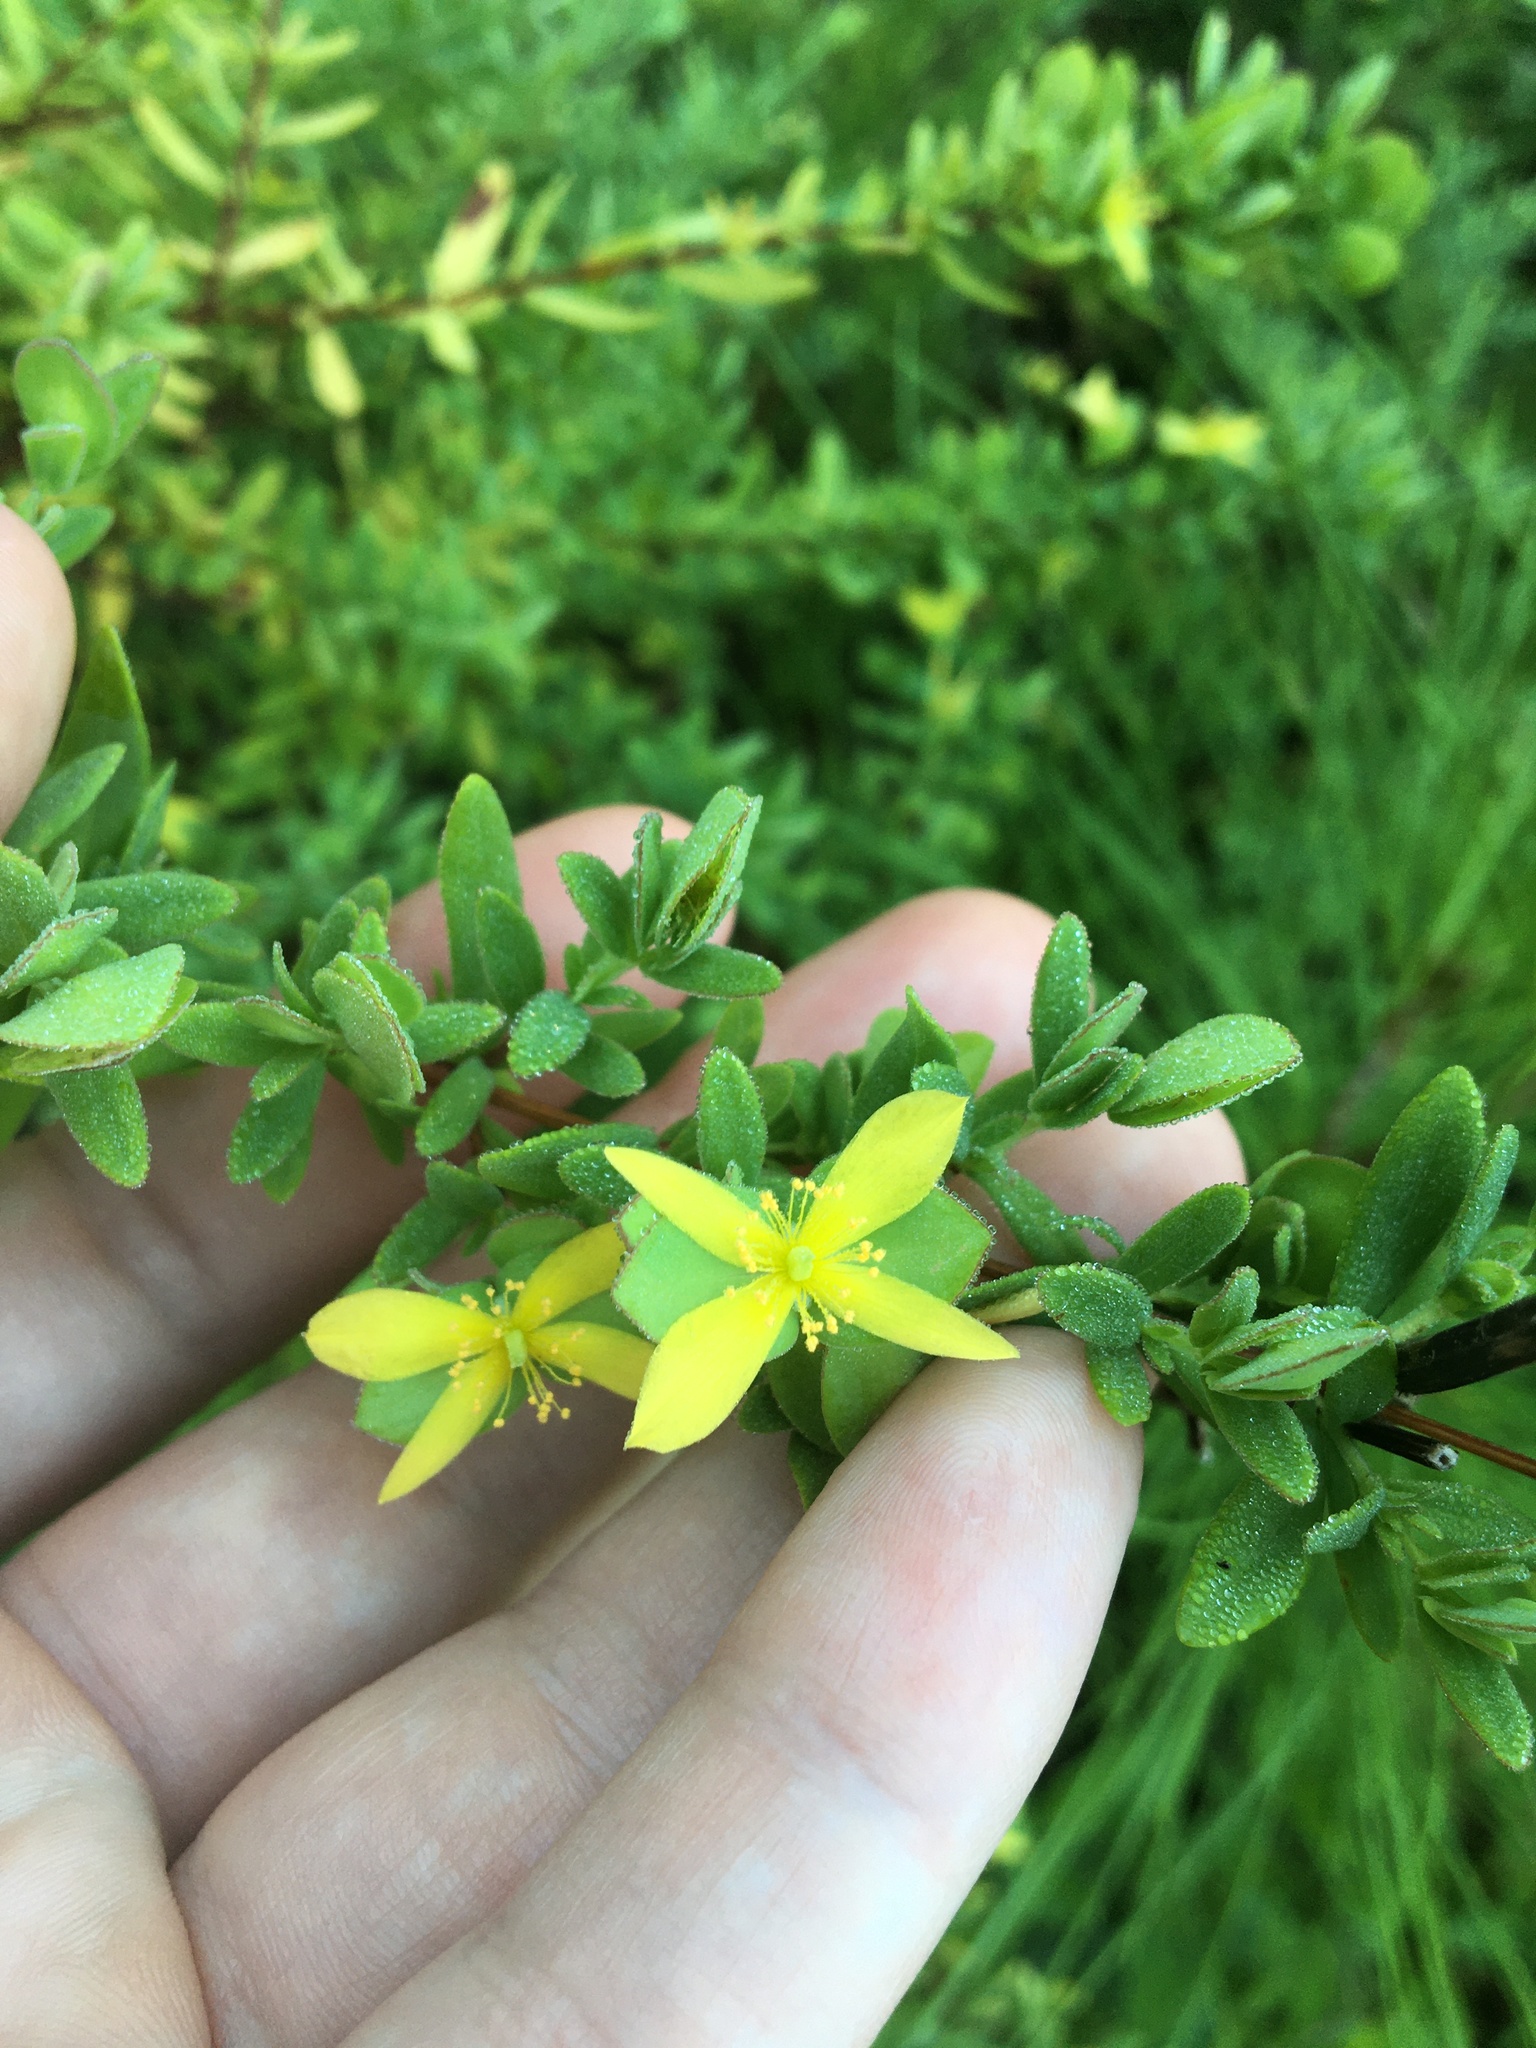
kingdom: Plantae
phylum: Tracheophyta
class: Magnoliopsida
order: Malpighiales
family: Hypericaceae
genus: Hypericum
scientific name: Hypericum hypericoides
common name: St. andrew's cross
